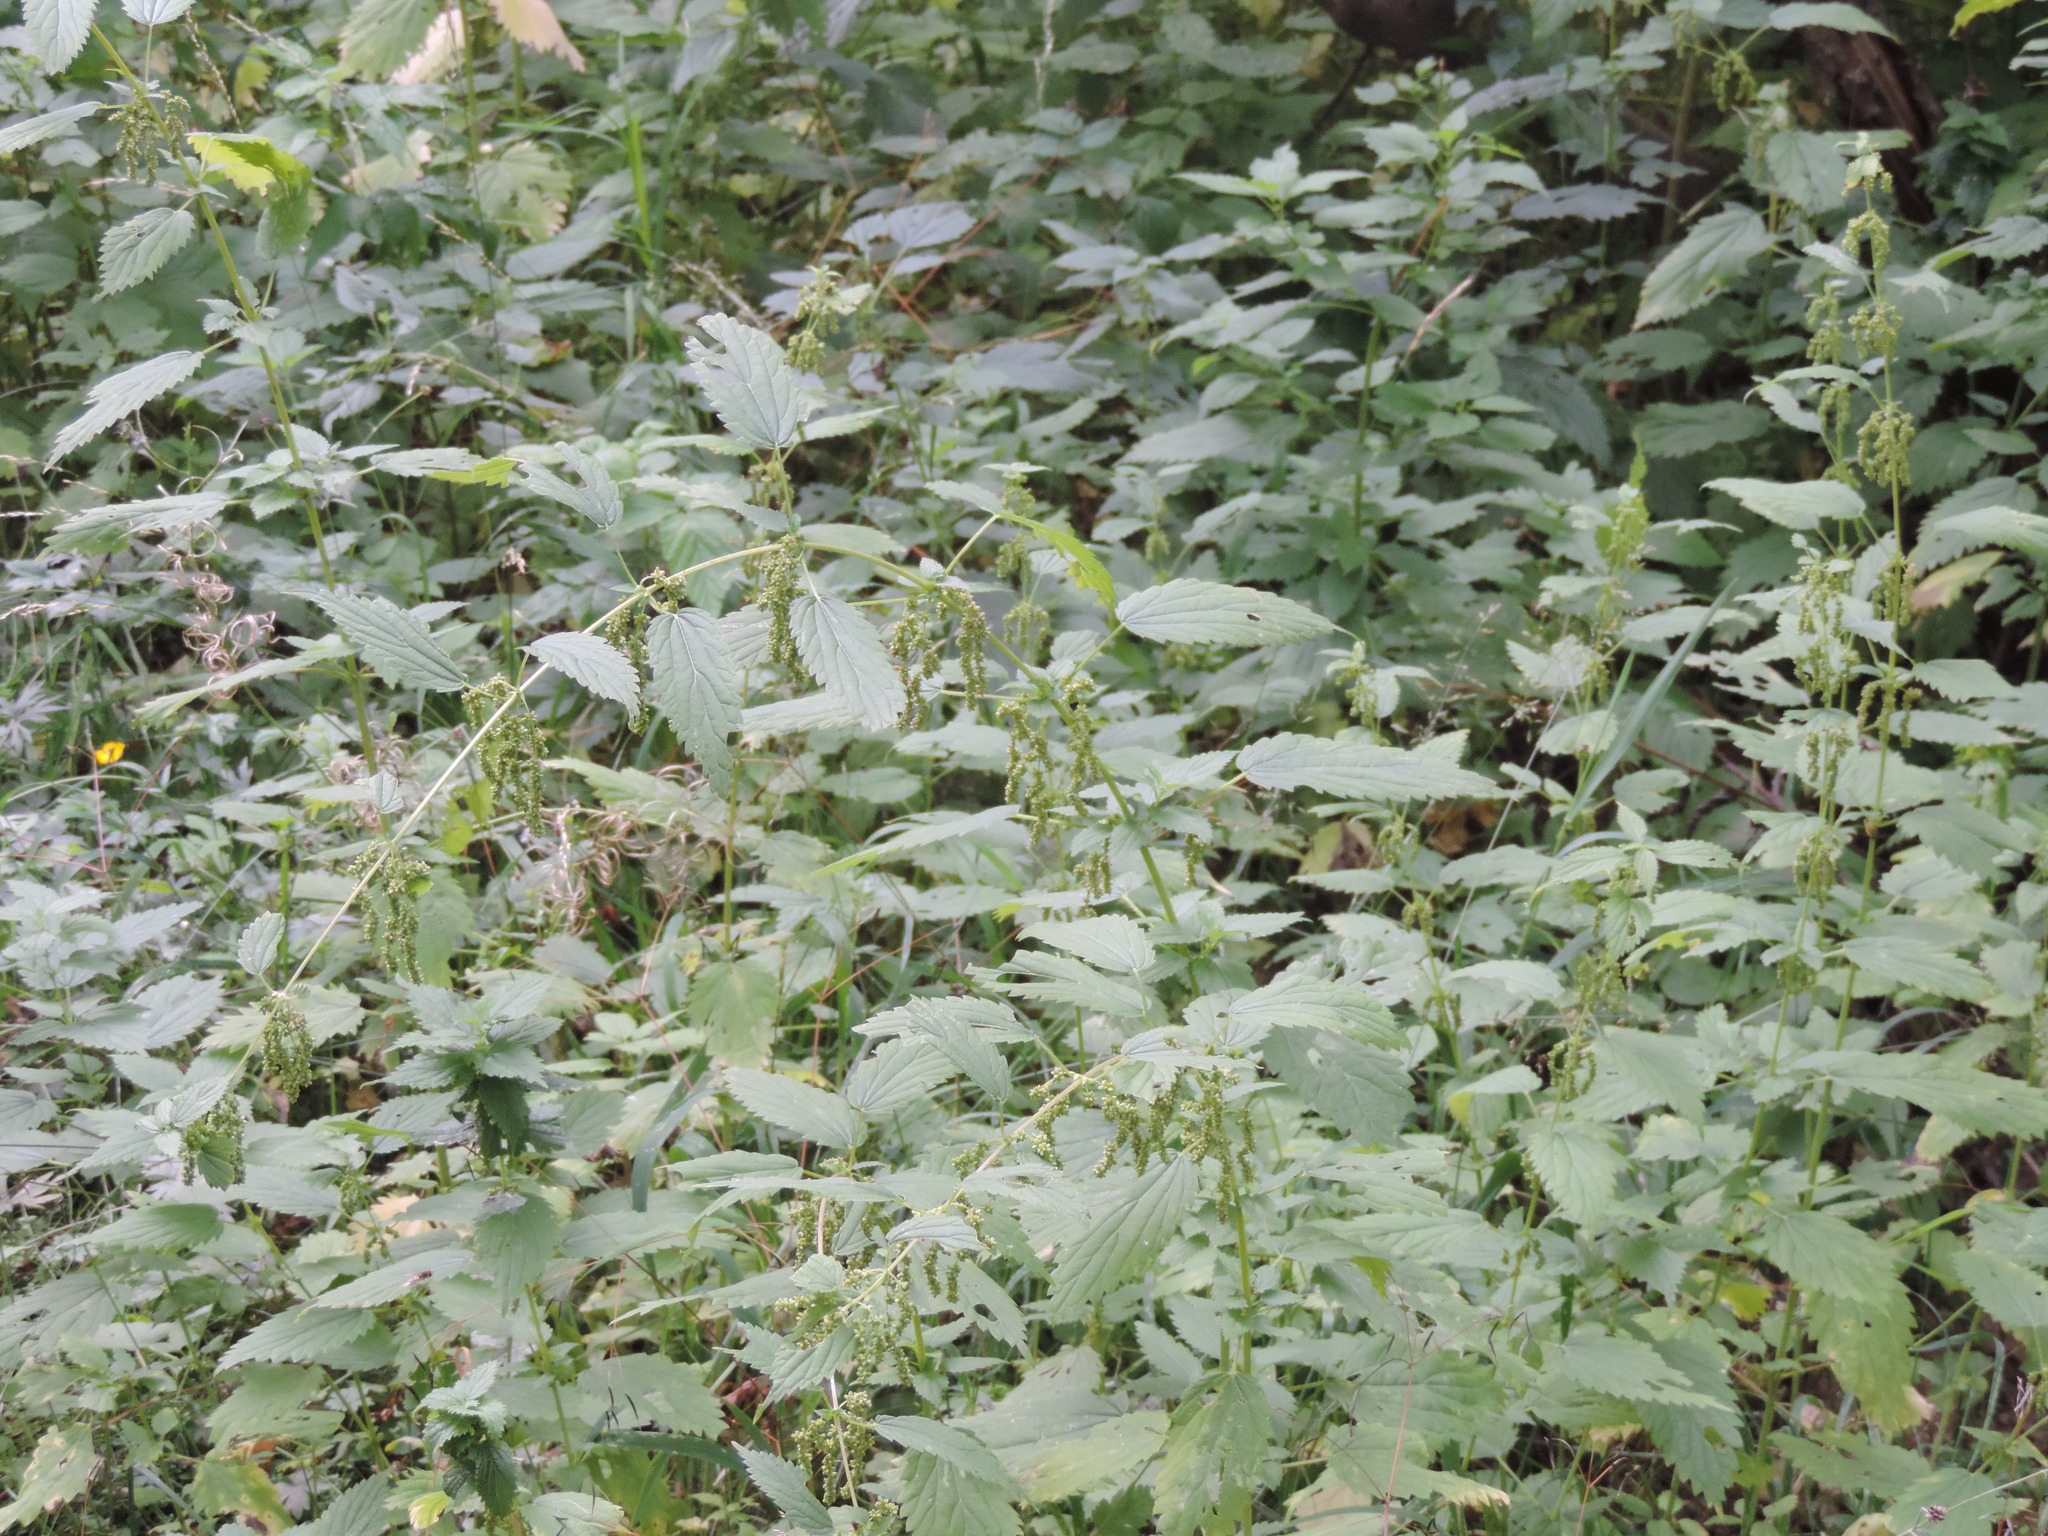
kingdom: Plantae
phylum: Tracheophyta
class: Magnoliopsida
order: Rosales
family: Urticaceae
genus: Urtica
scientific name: Urtica dioica
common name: Common nettle
